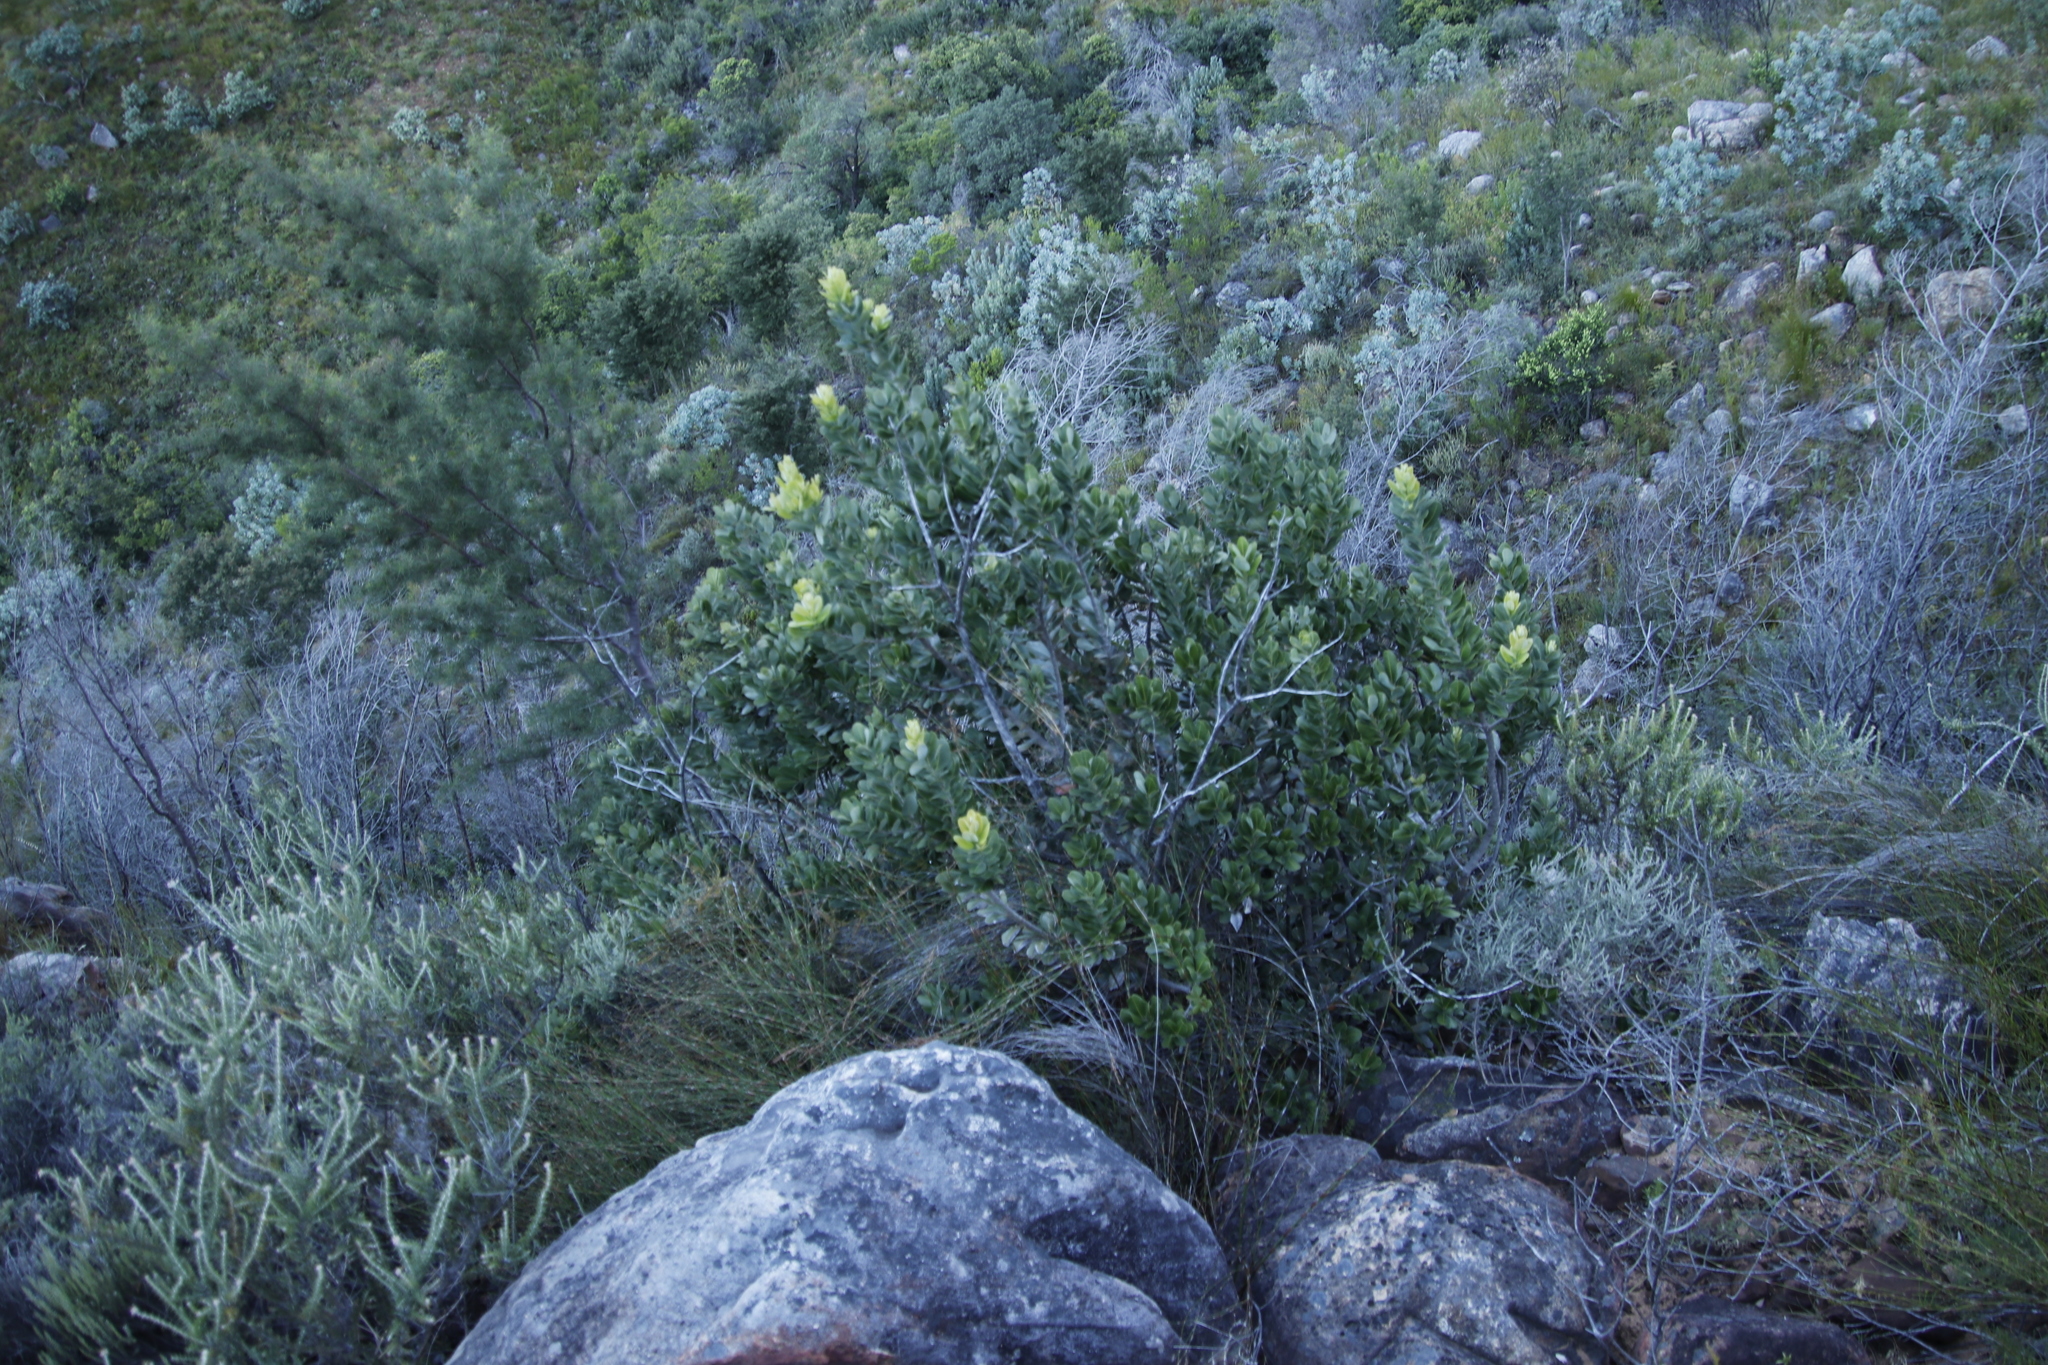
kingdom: Plantae
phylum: Tracheophyta
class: Magnoliopsida
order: Sapindales
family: Anacardiaceae
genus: Heeria
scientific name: Heeria argentea
